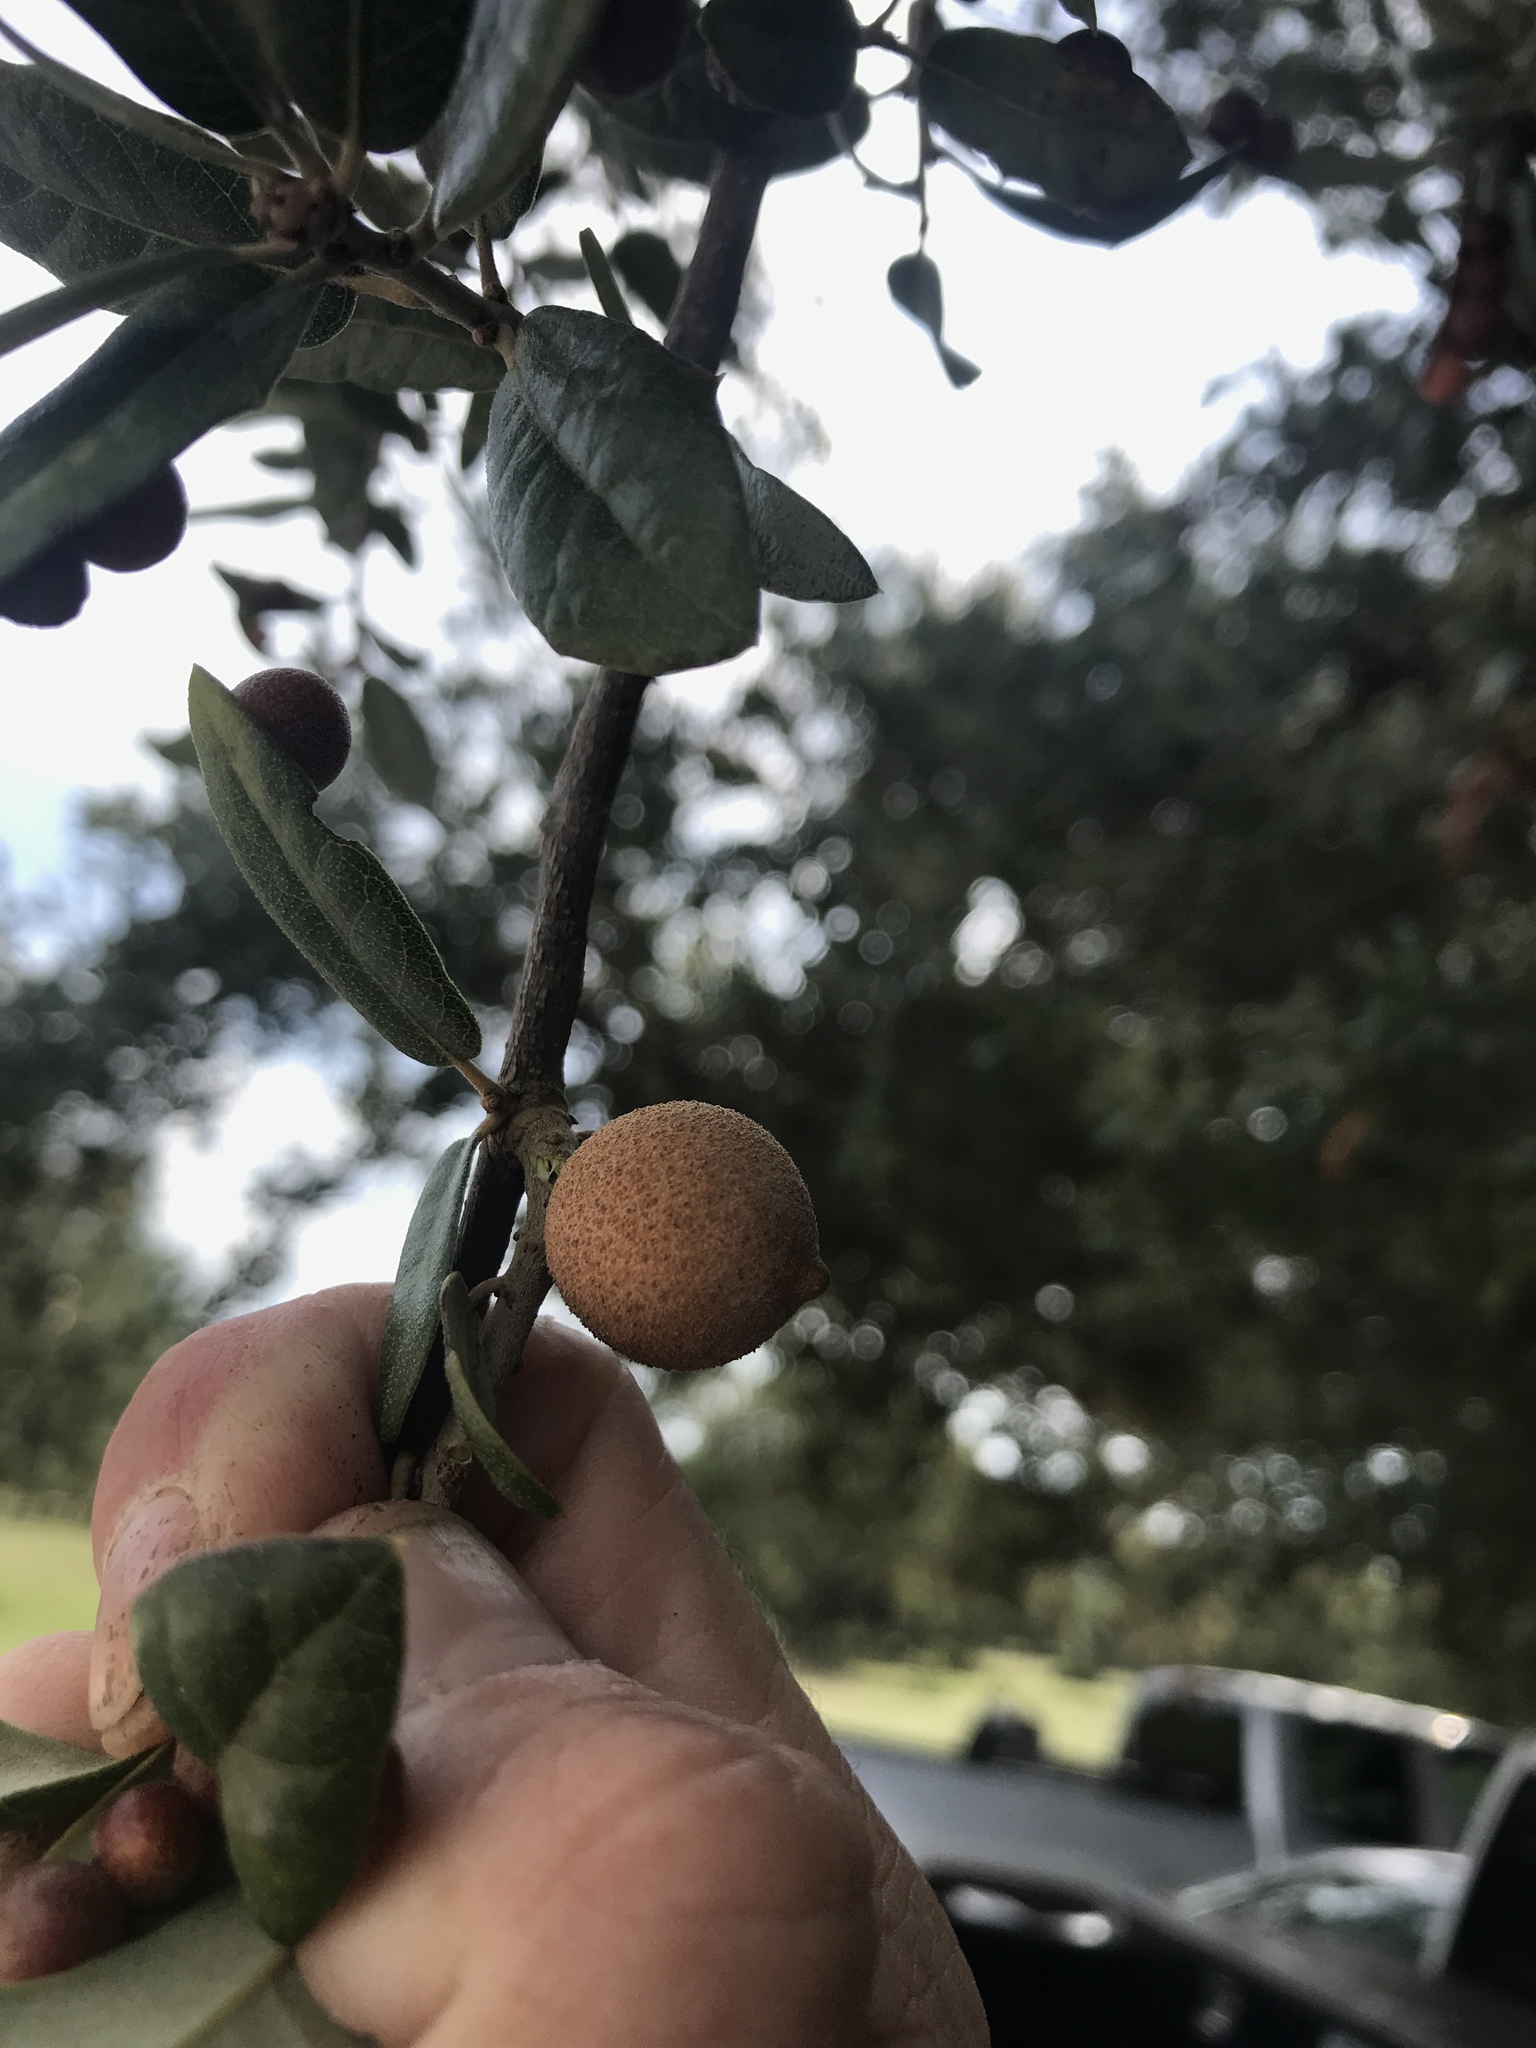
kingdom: Animalia
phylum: Arthropoda
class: Insecta
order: Hymenoptera
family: Cynipidae
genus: Disholcaspis
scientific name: Disholcaspis
